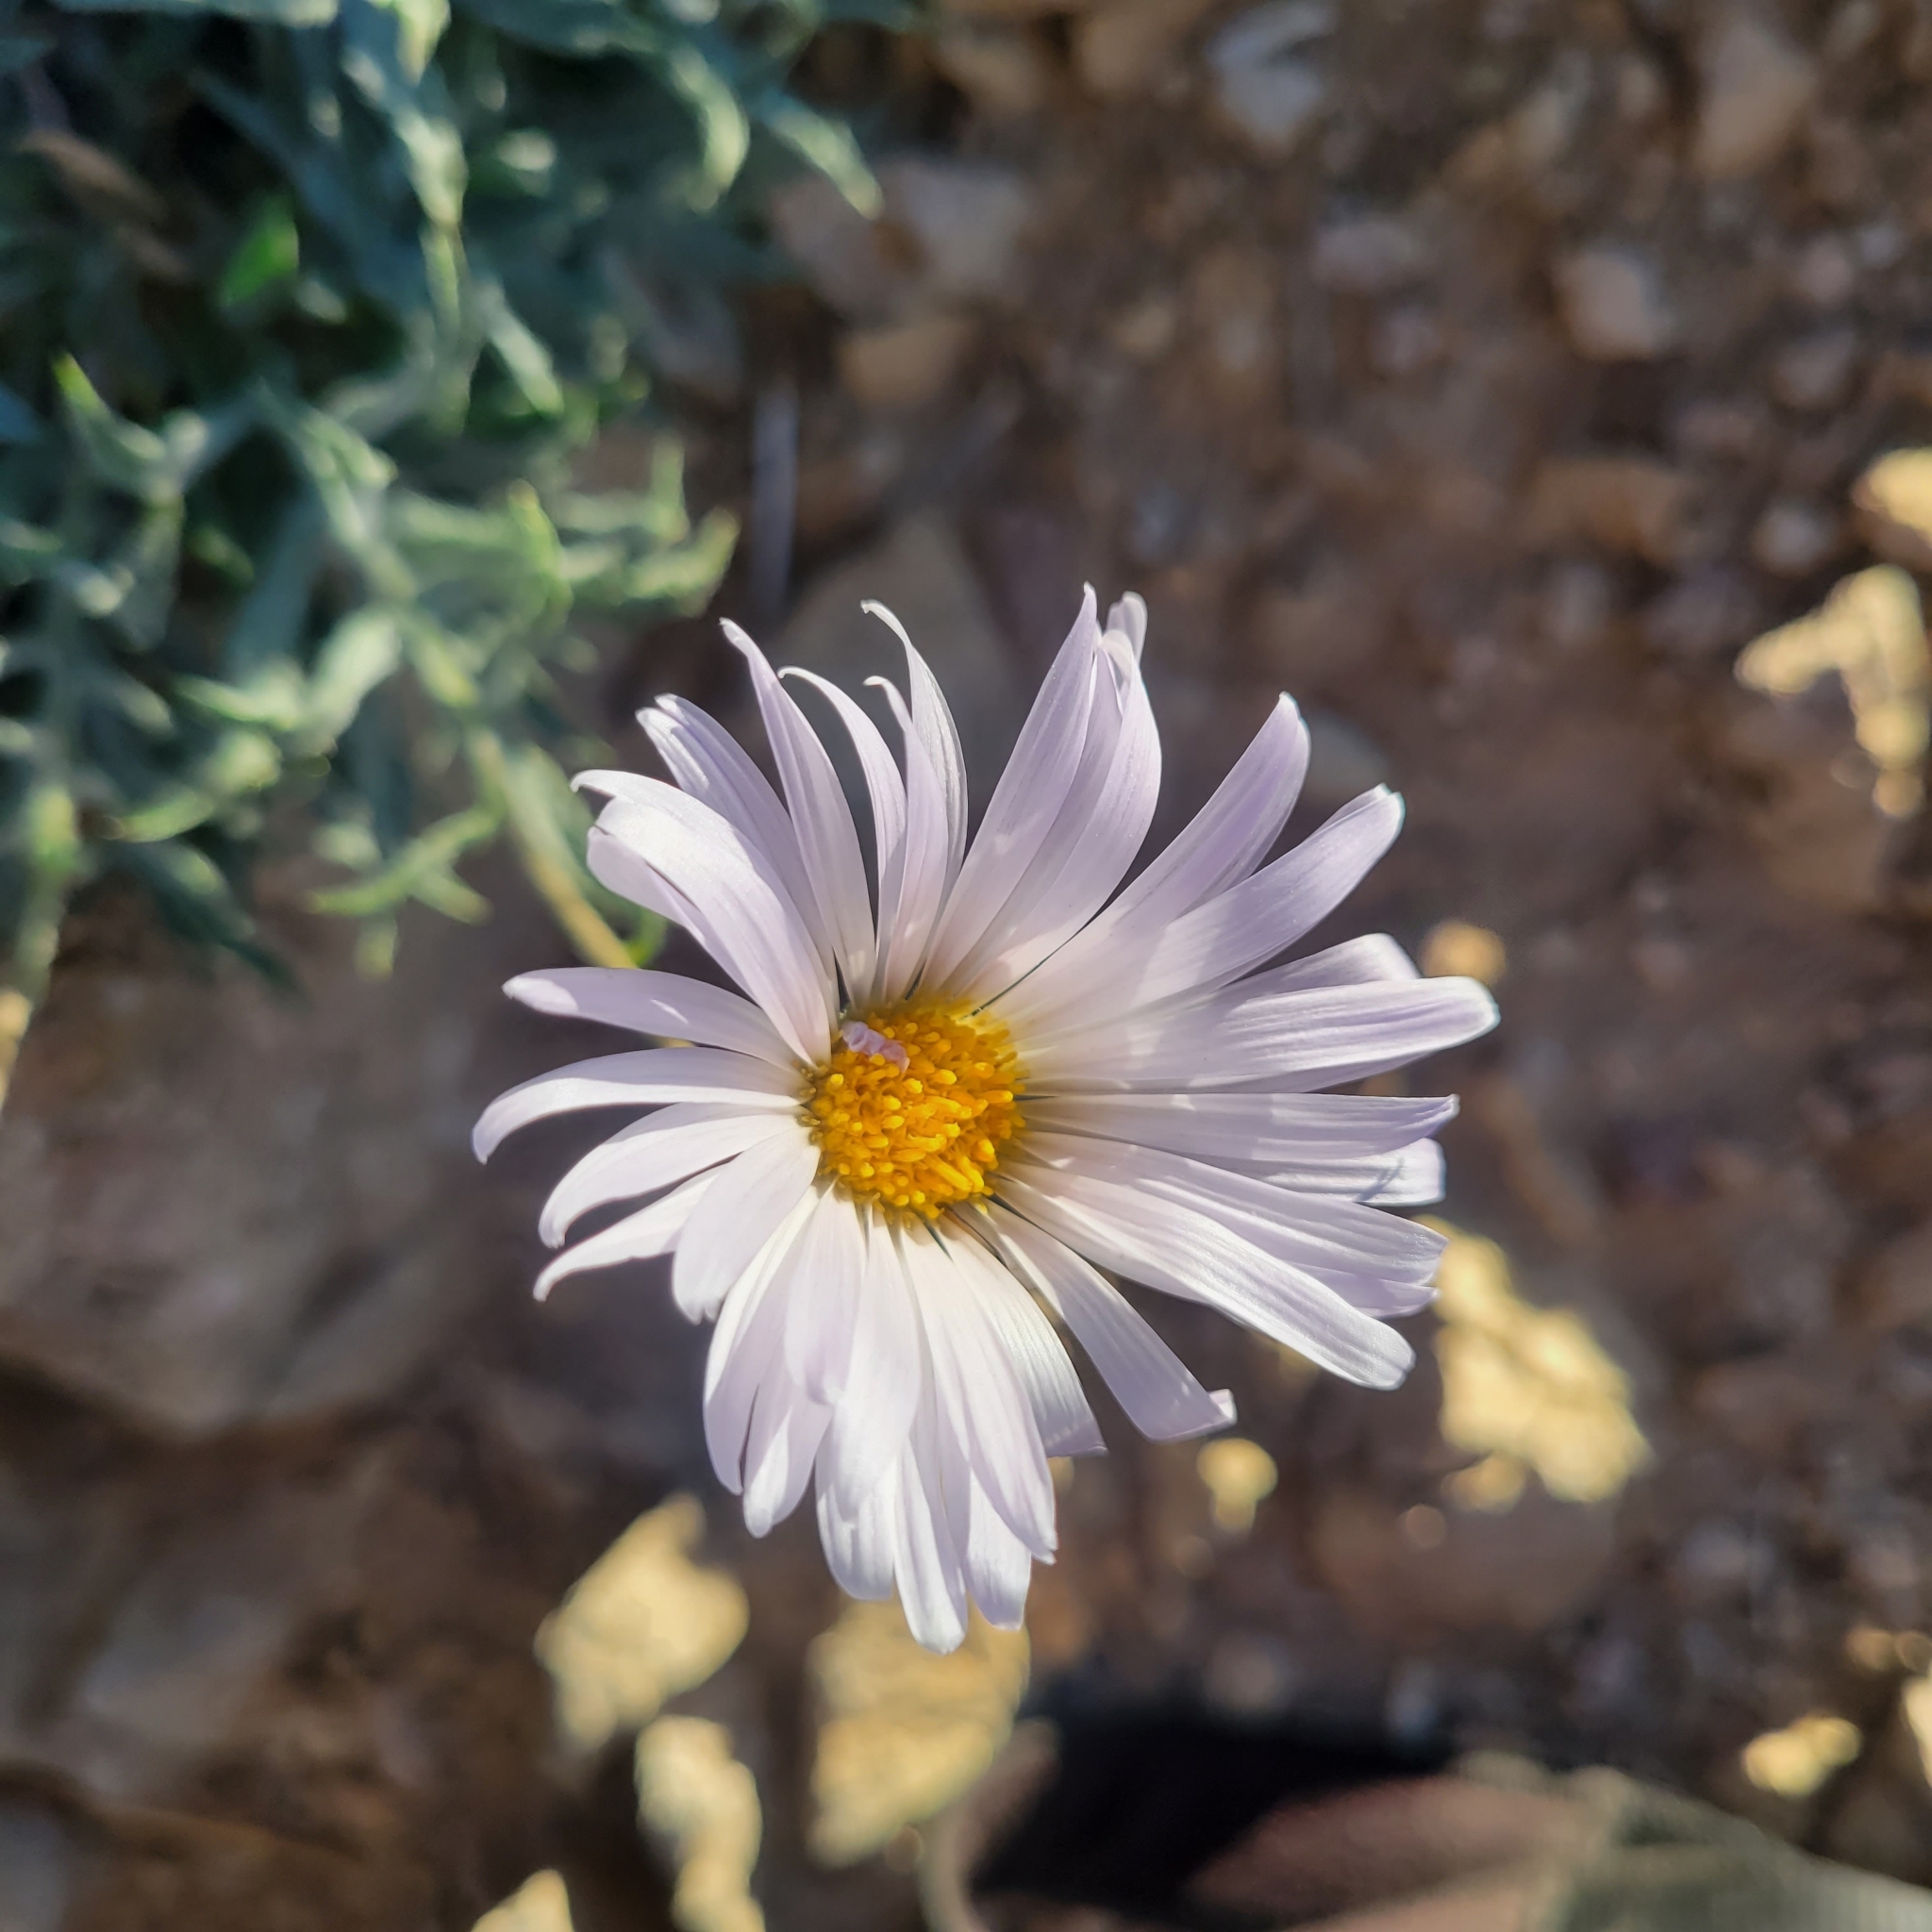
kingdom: Plantae
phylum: Tracheophyta
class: Magnoliopsida
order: Asterales
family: Asteraceae
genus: Xylorhiza
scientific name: Xylorhiza tortifolia
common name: Hurt-leaf woody-aster
